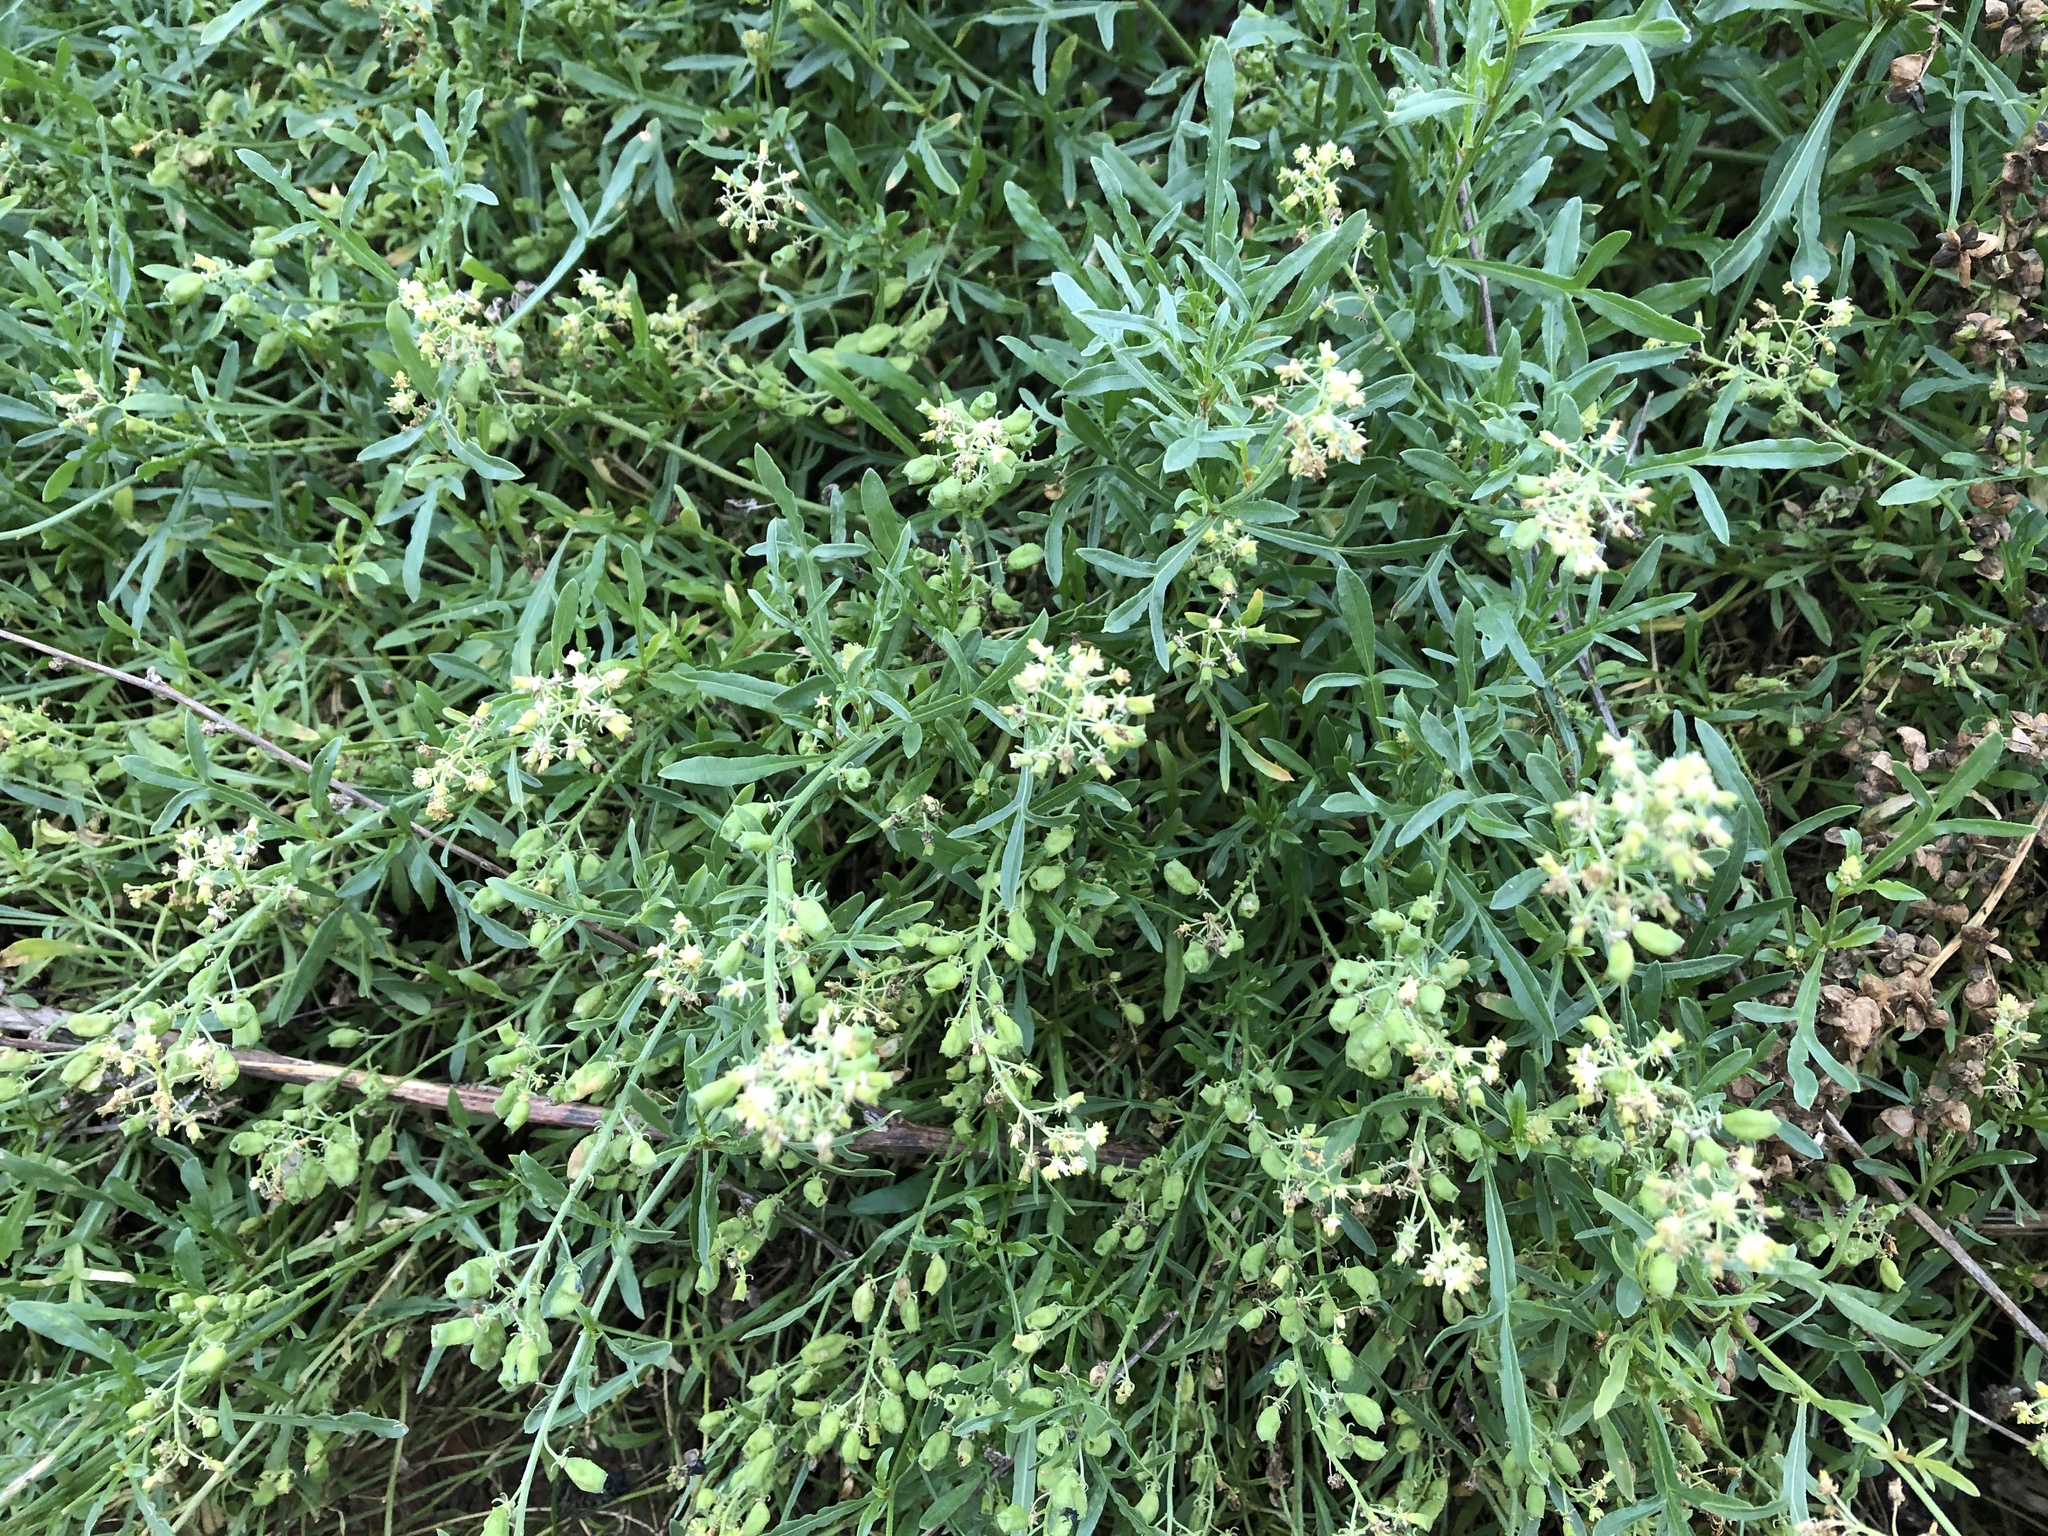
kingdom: Plantae
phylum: Tracheophyta
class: Magnoliopsida
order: Brassicales
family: Resedaceae
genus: Reseda
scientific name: Reseda lutea
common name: Wild mignonette
